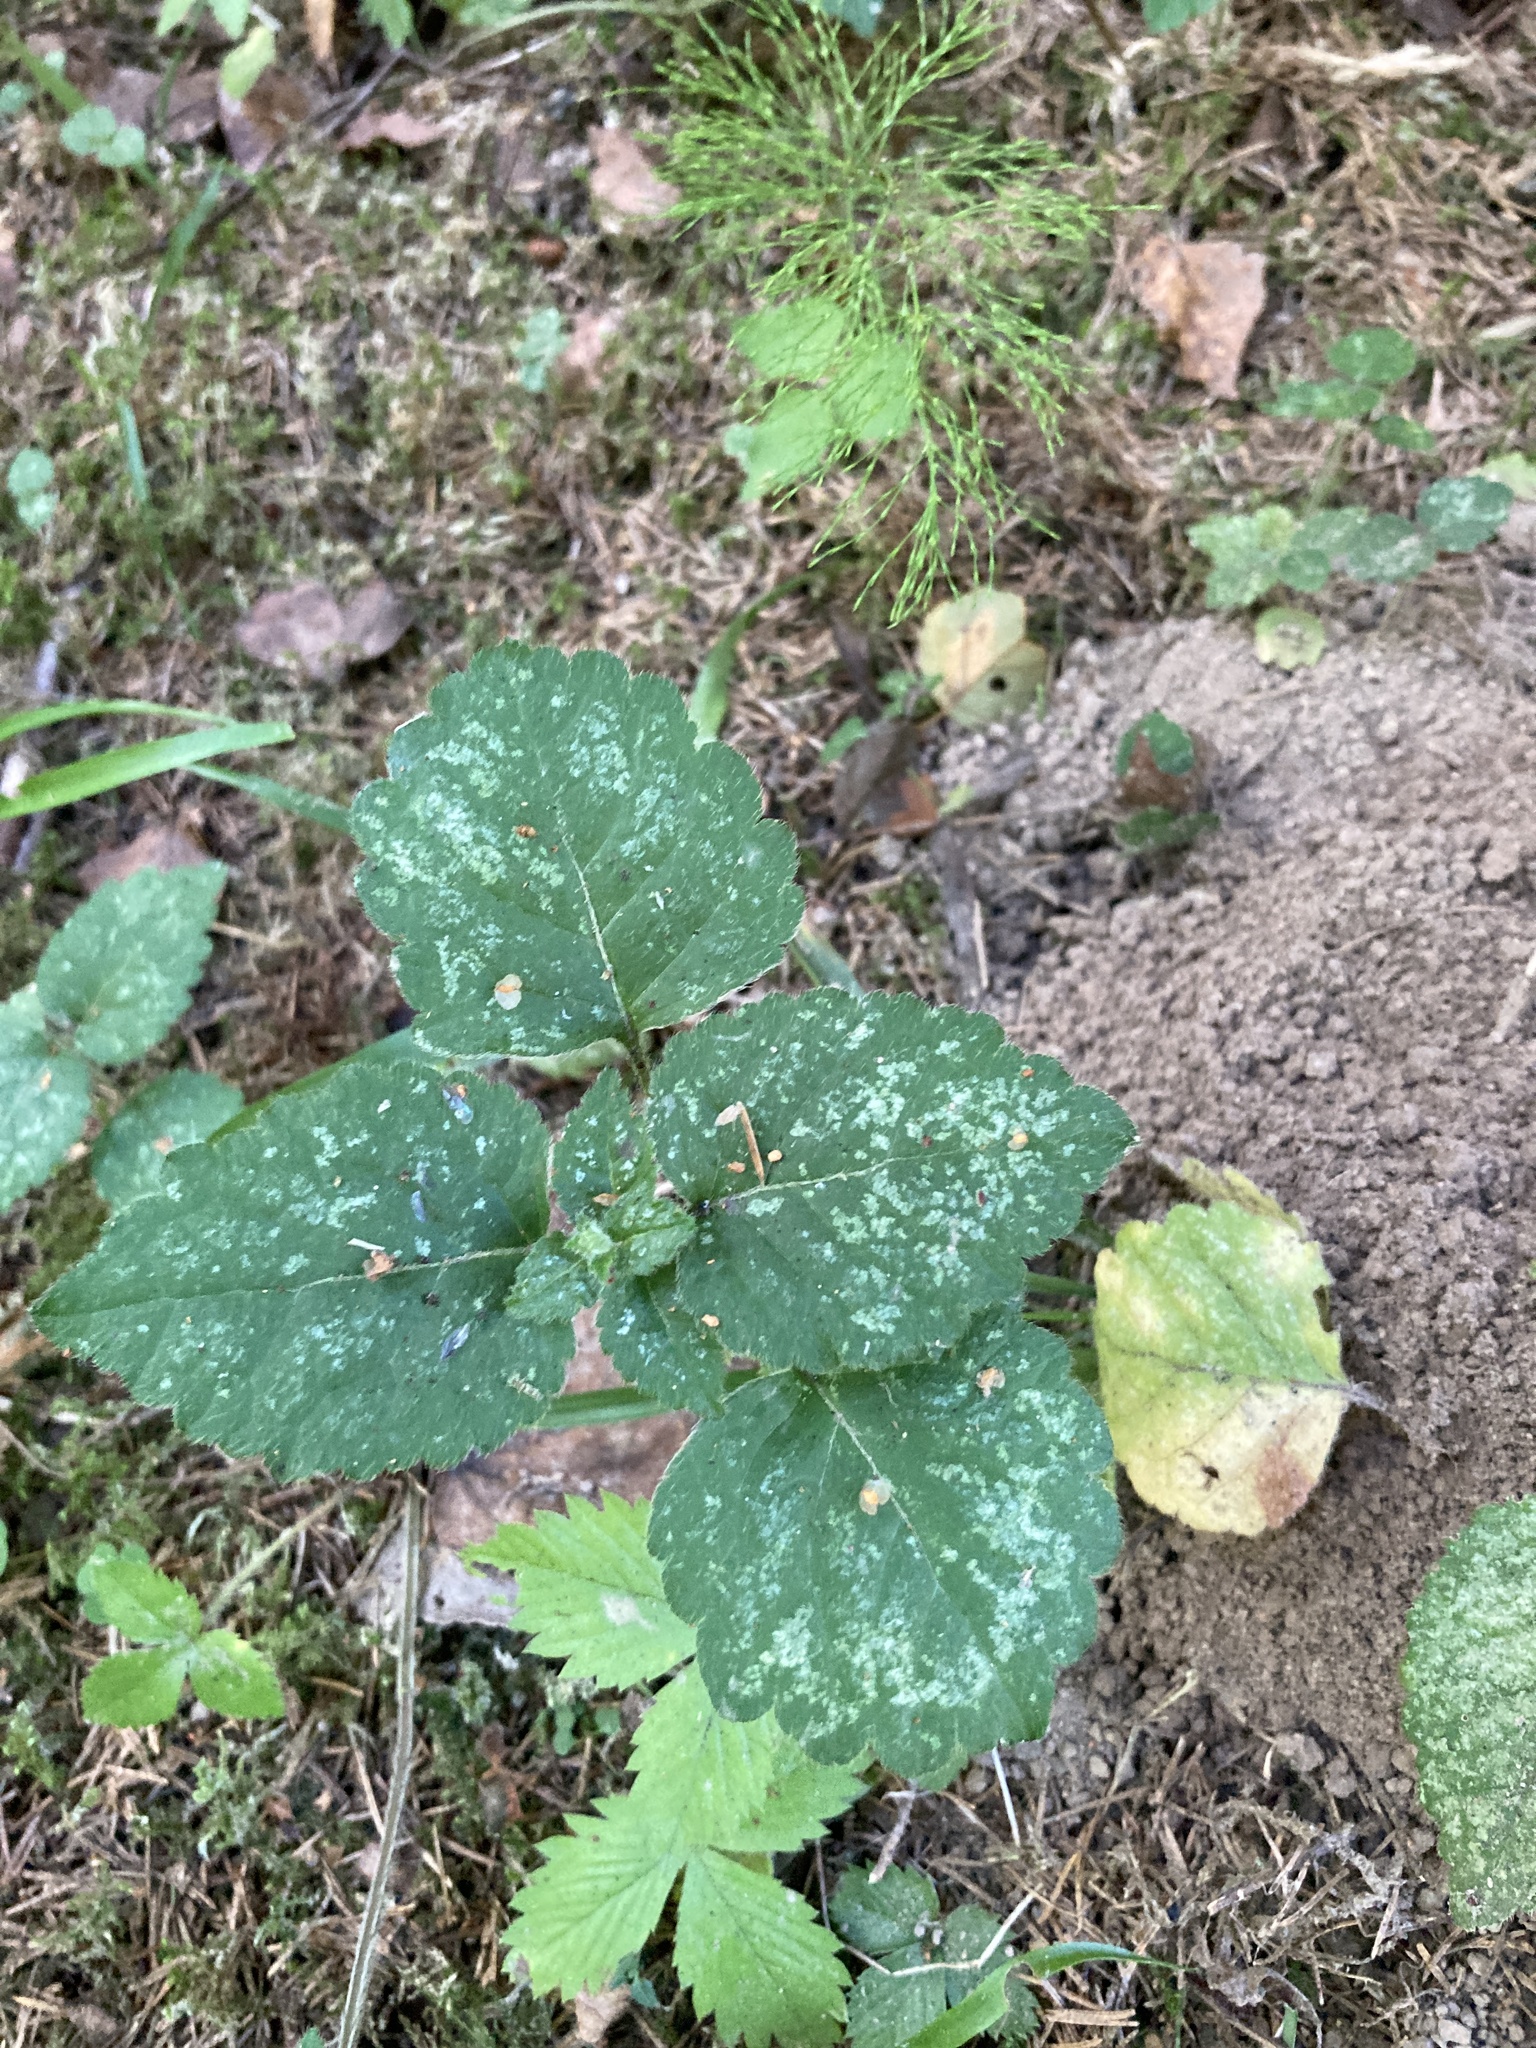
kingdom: Plantae
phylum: Tracheophyta
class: Magnoliopsida
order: Lamiales
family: Lamiaceae
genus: Lamium
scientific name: Lamium galeobdolon
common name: Yellow archangel
